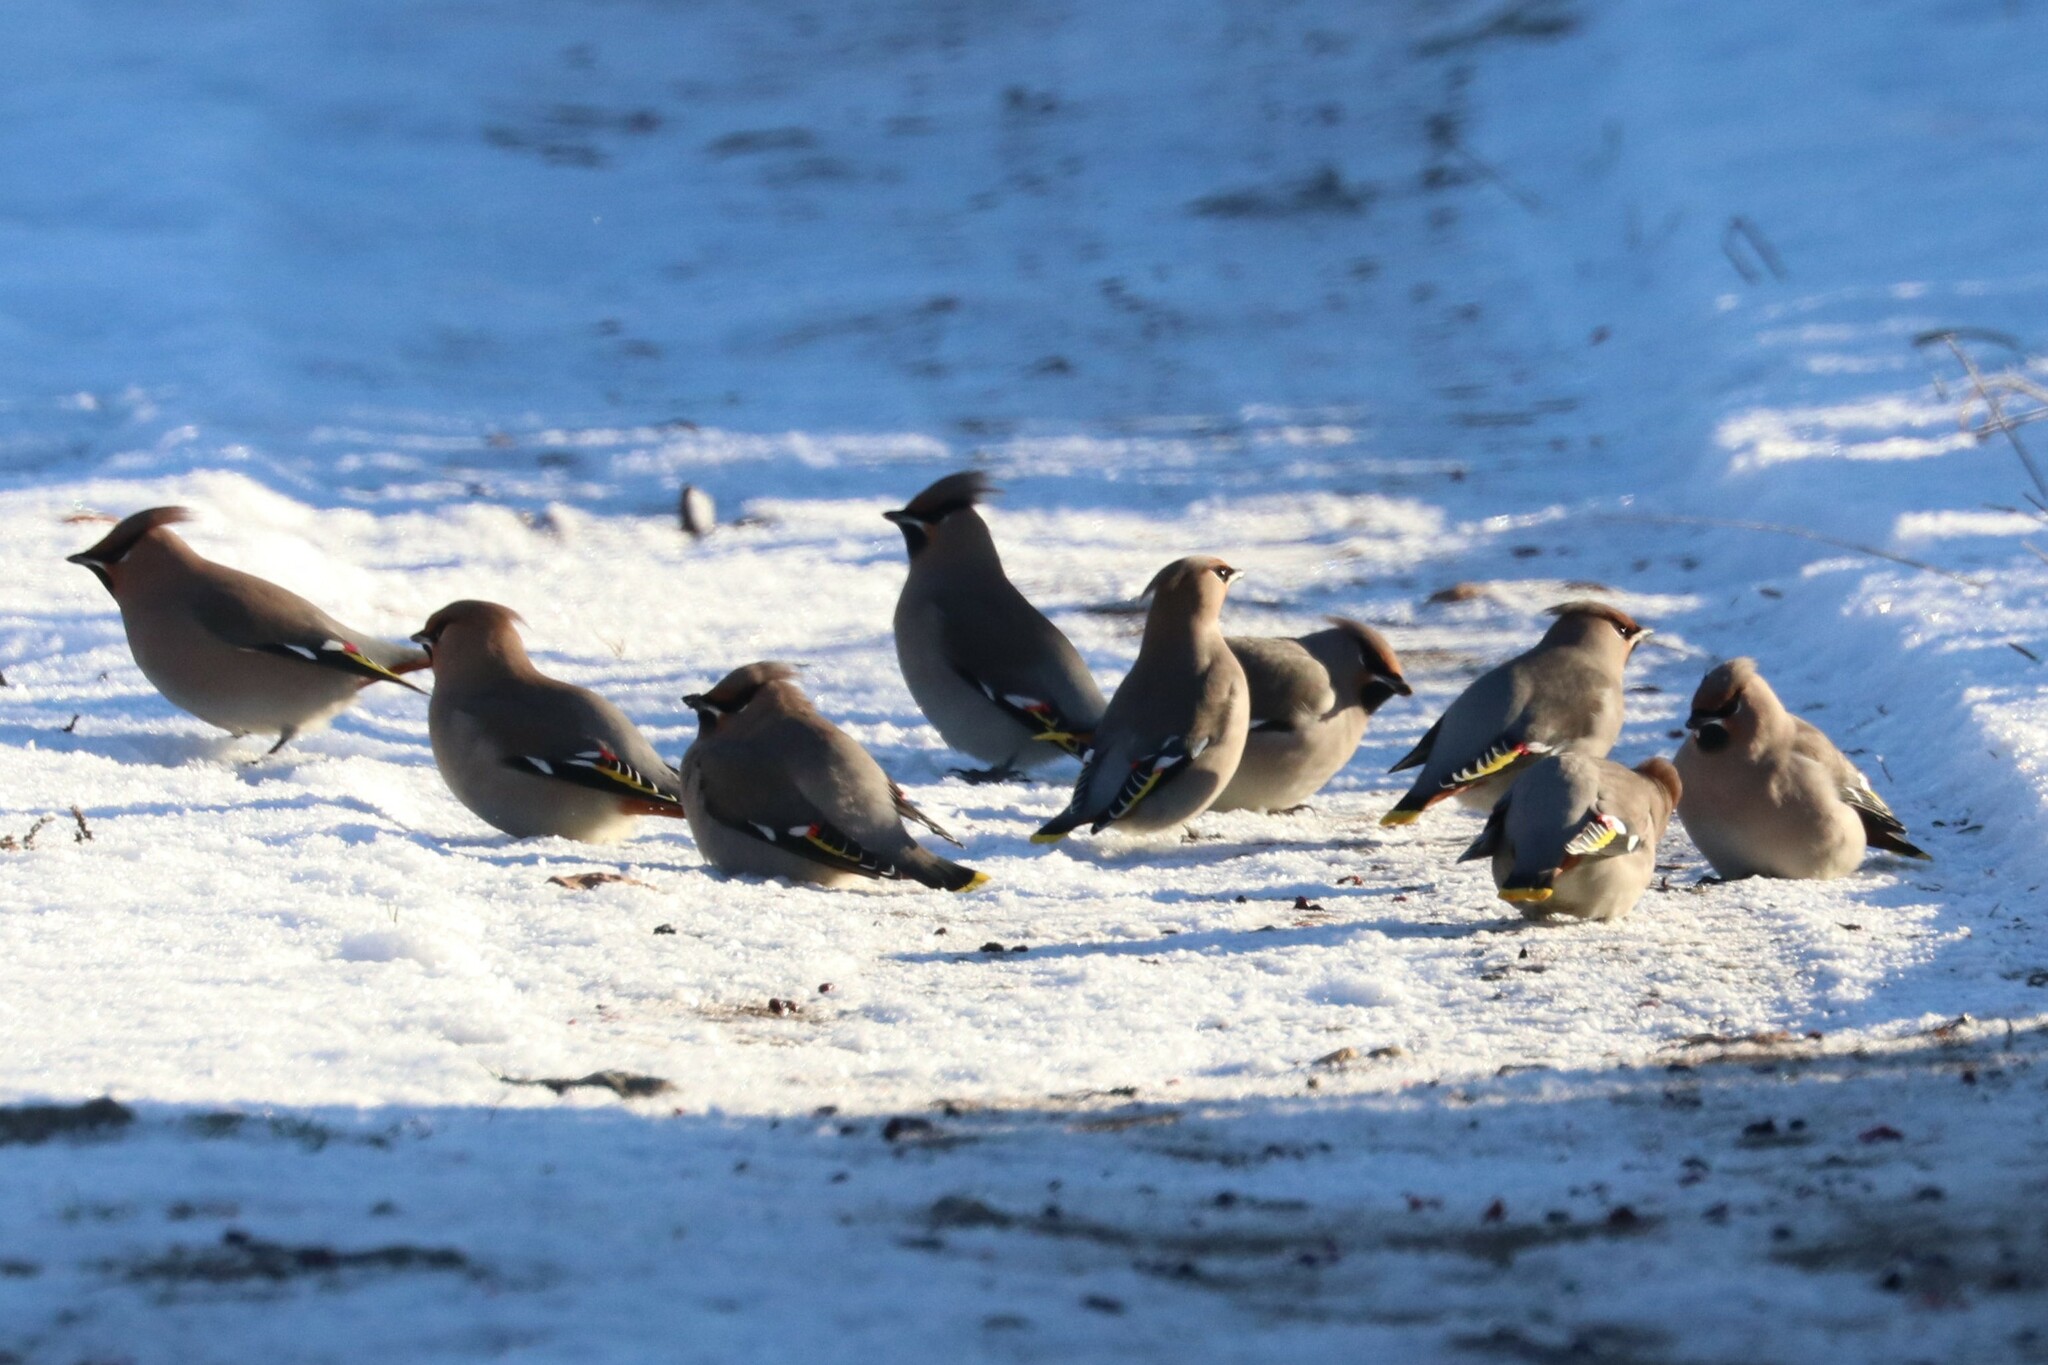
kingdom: Animalia
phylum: Chordata
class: Aves
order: Passeriformes
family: Bombycillidae
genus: Bombycilla
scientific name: Bombycilla garrulus
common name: Bohemian waxwing
